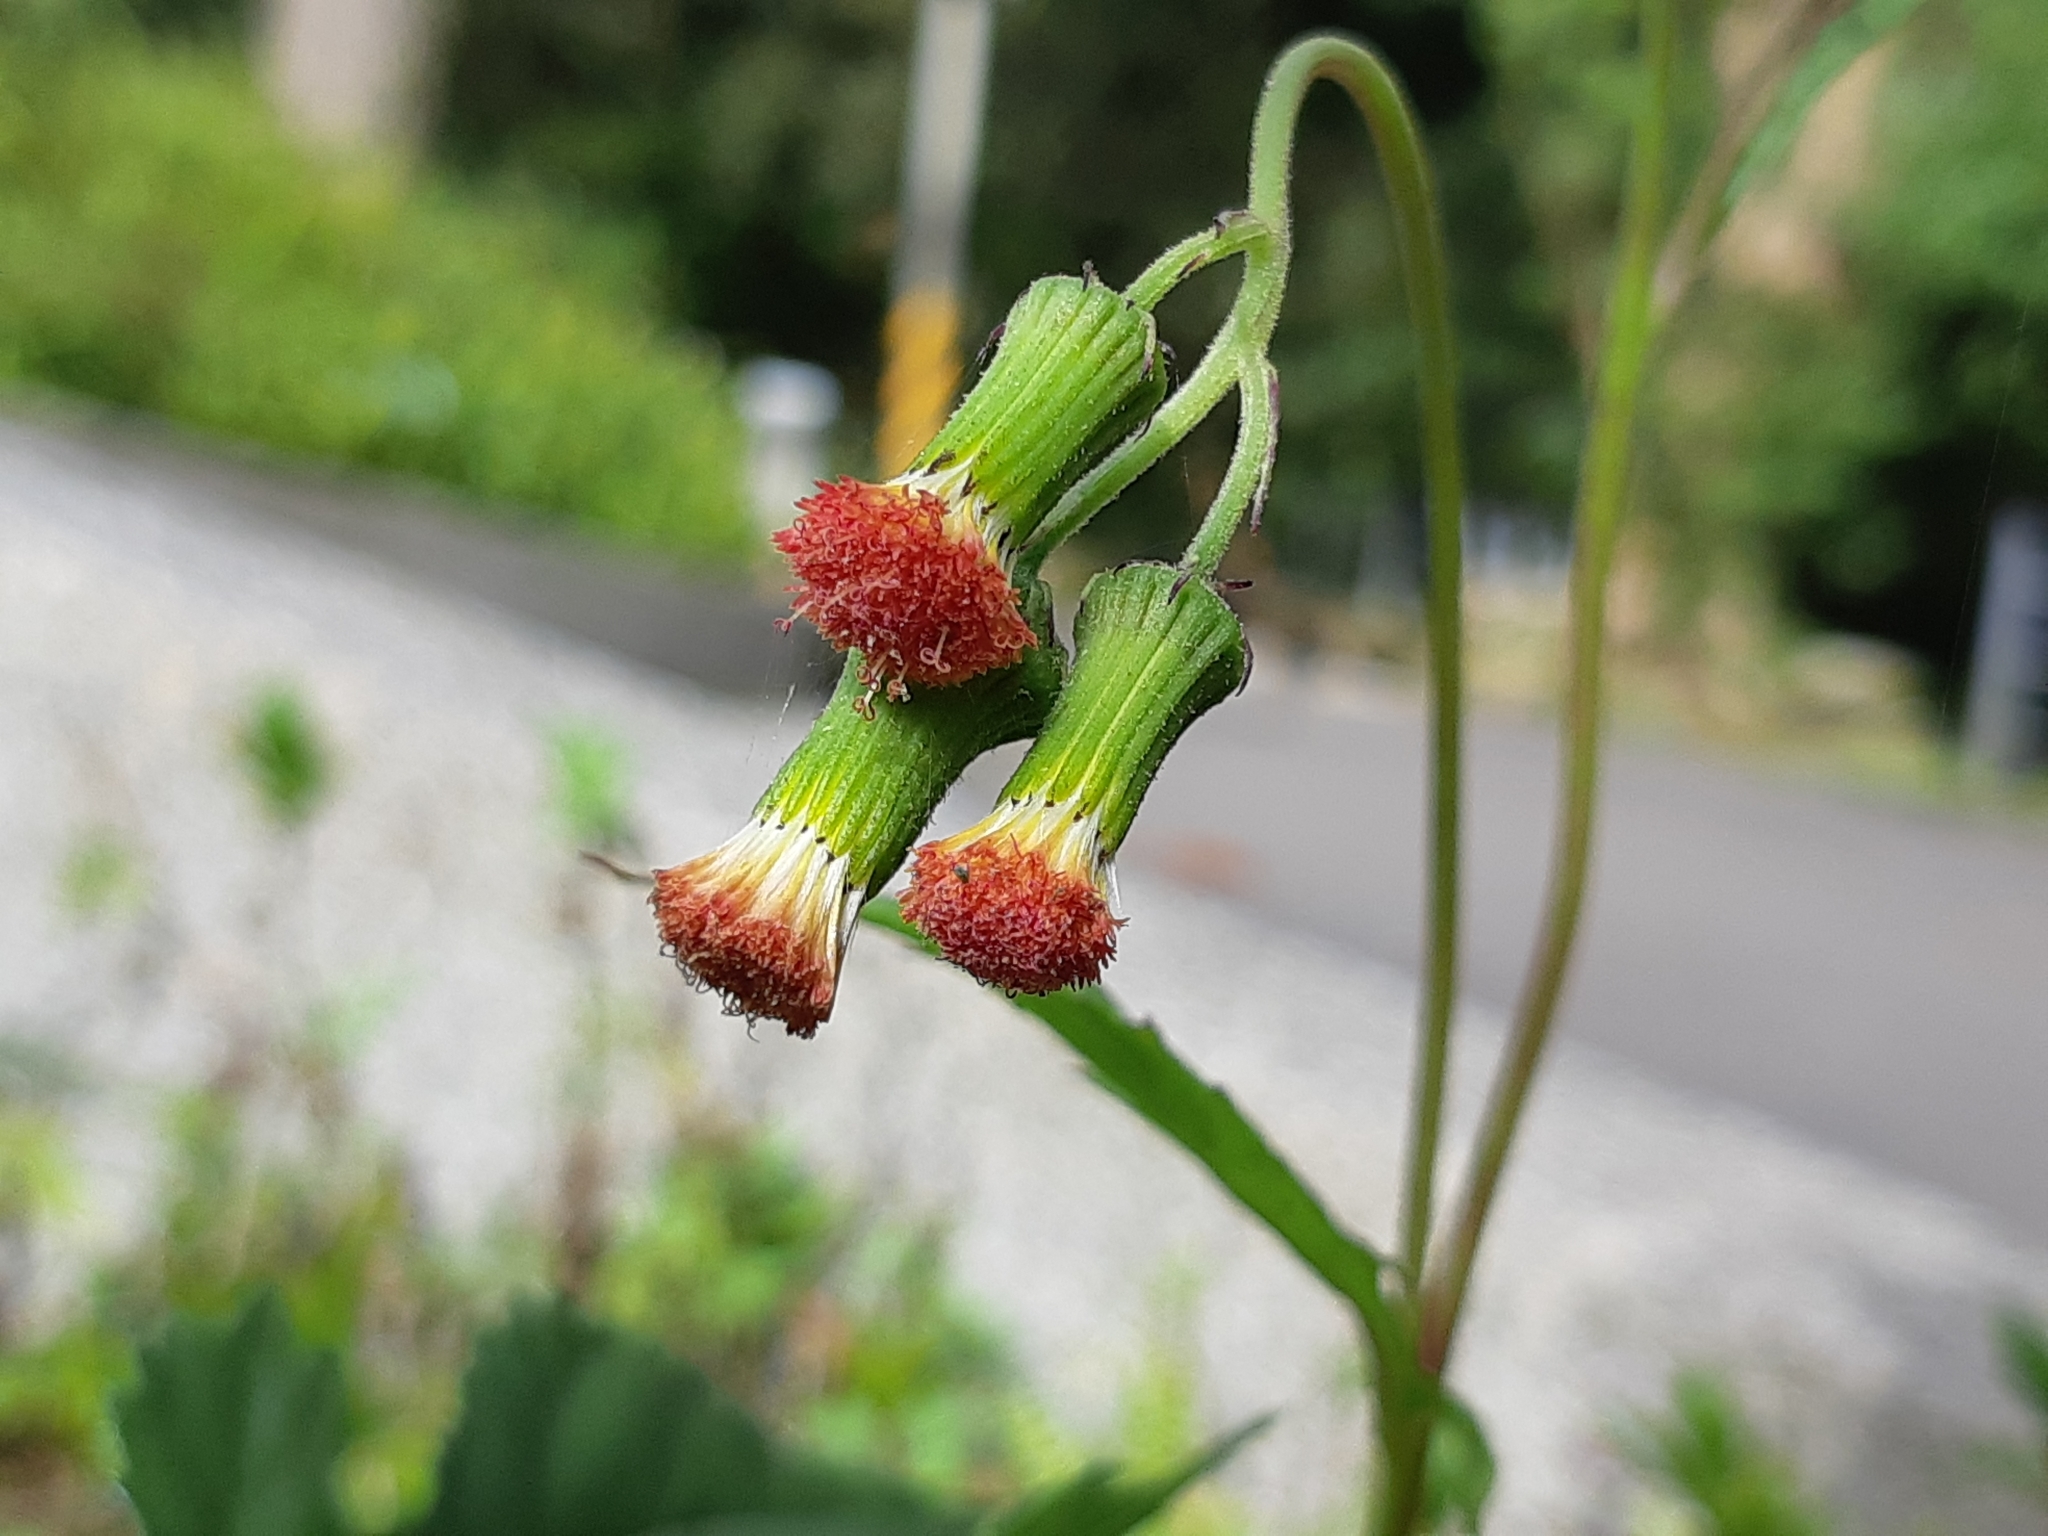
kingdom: Plantae
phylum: Tracheophyta
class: Magnoliopsida
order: Asterales
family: Asteraceae
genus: Crassocephalum
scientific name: Crassocephalum crepidioides
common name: Redflower ragleaf
